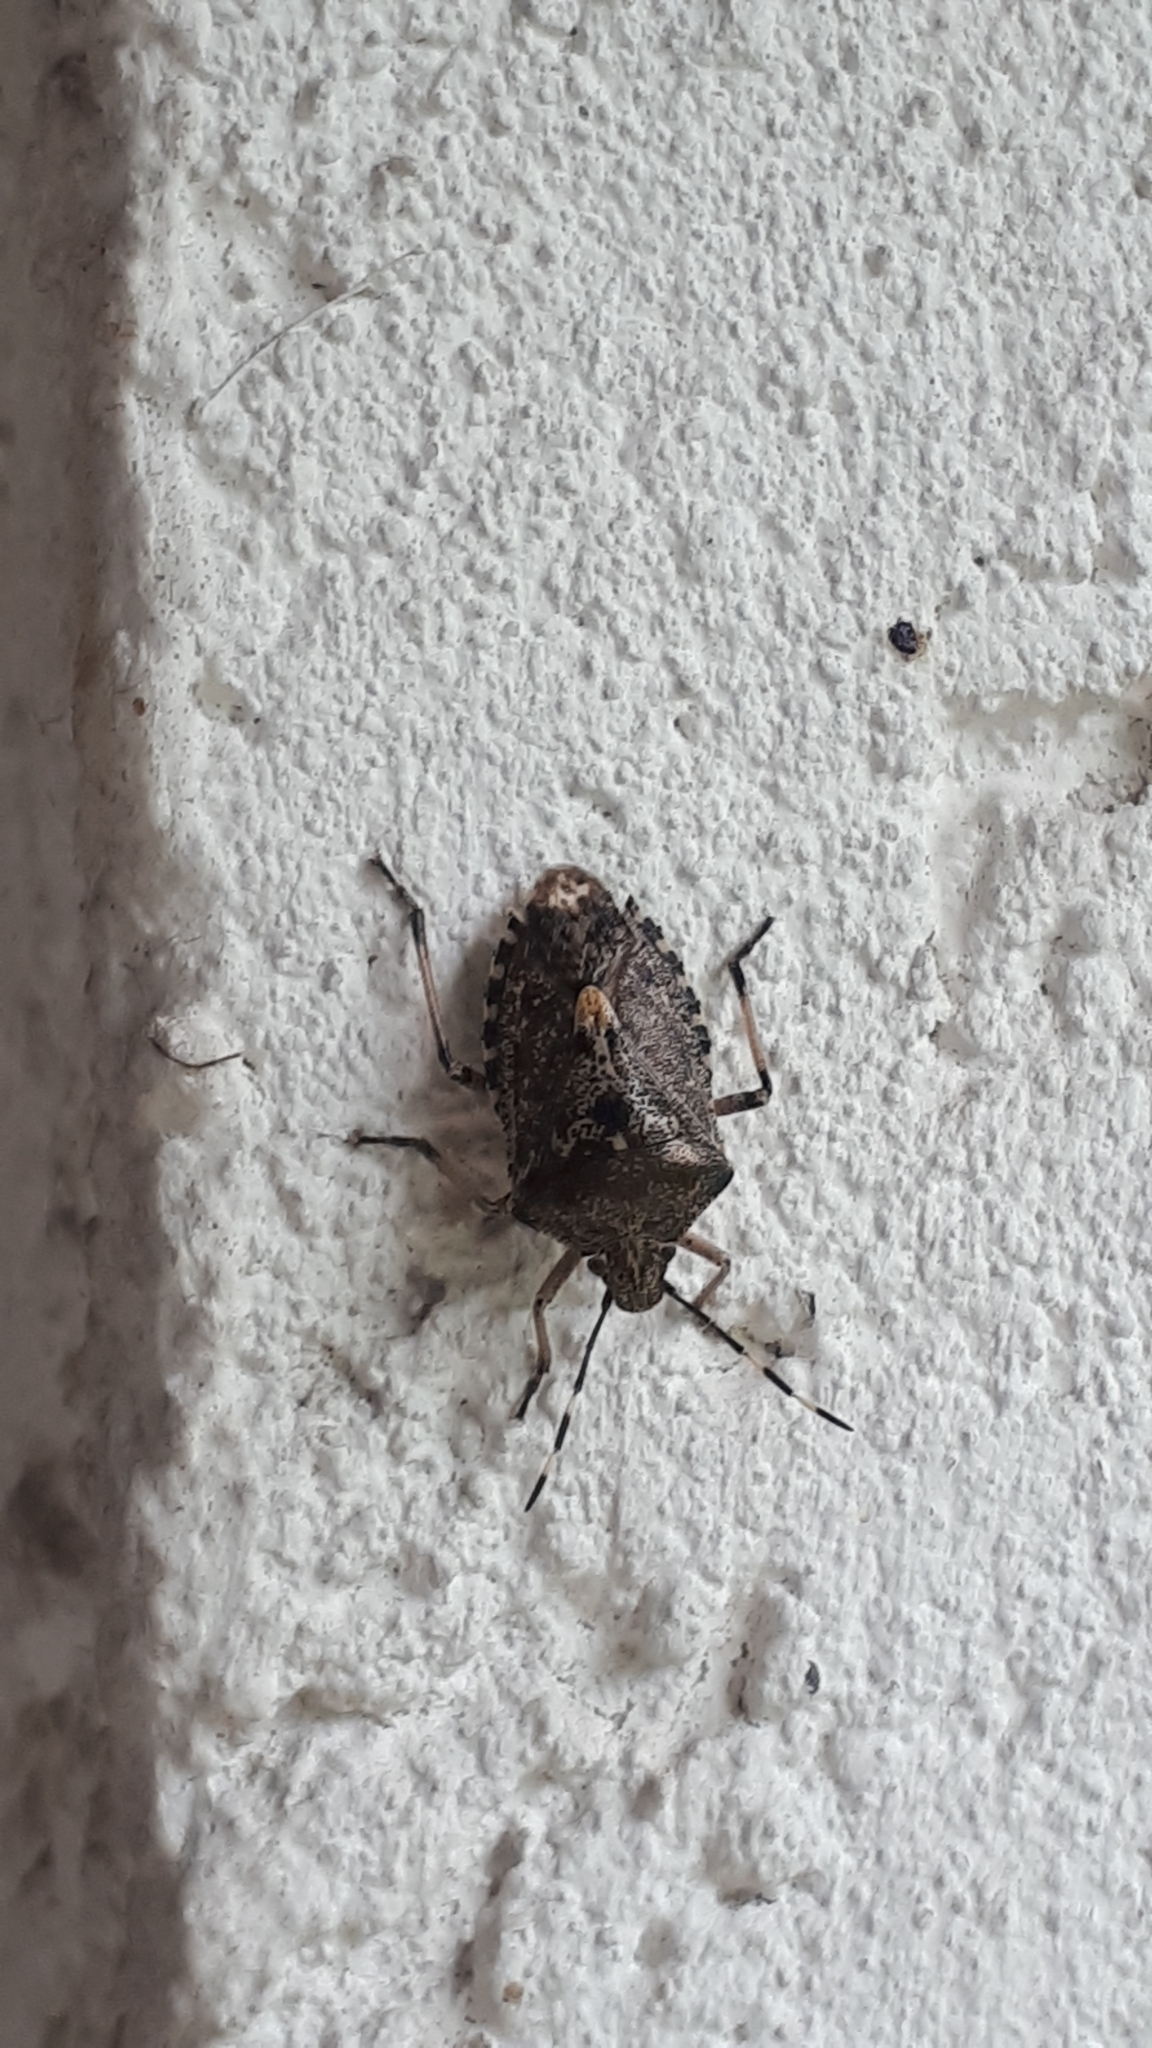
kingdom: Animalia
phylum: Arthropoda
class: Insecta
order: Hemiptera
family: Pentatomidae
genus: Rhaphigaster
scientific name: Rhaphigaster nebulosa
